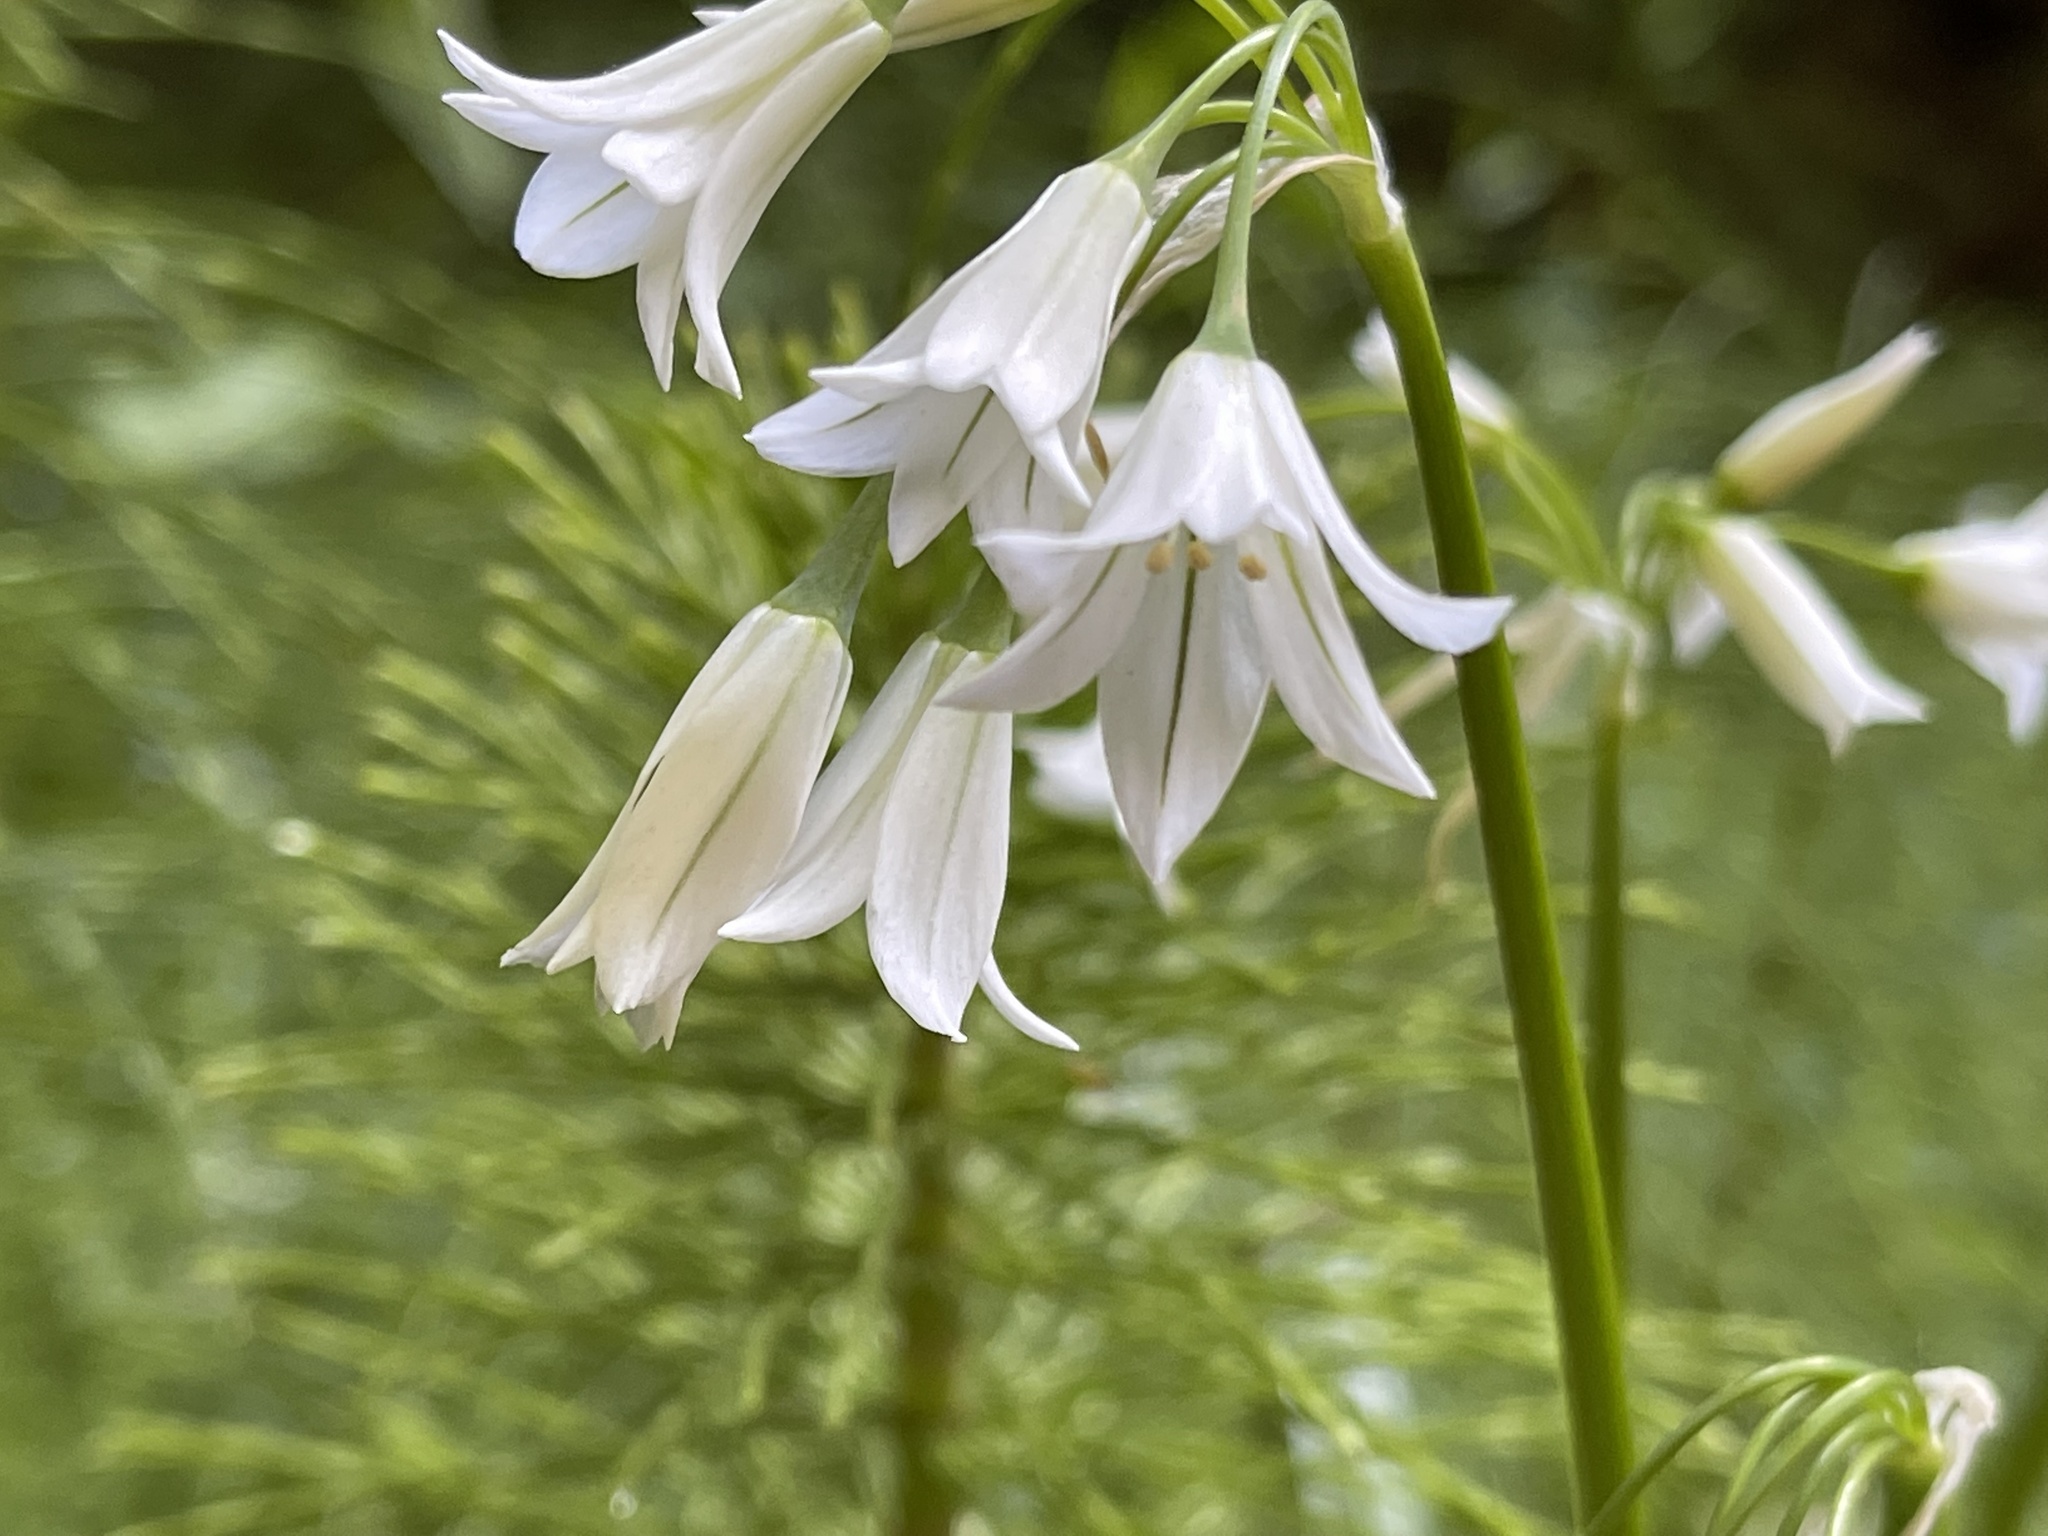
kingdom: Plantae
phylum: Tracheophyta
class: Liliopsida
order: Asparagales
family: Amaryllidaceae
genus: Allium
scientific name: Allium triquetrum
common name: Three-cornered garlic
